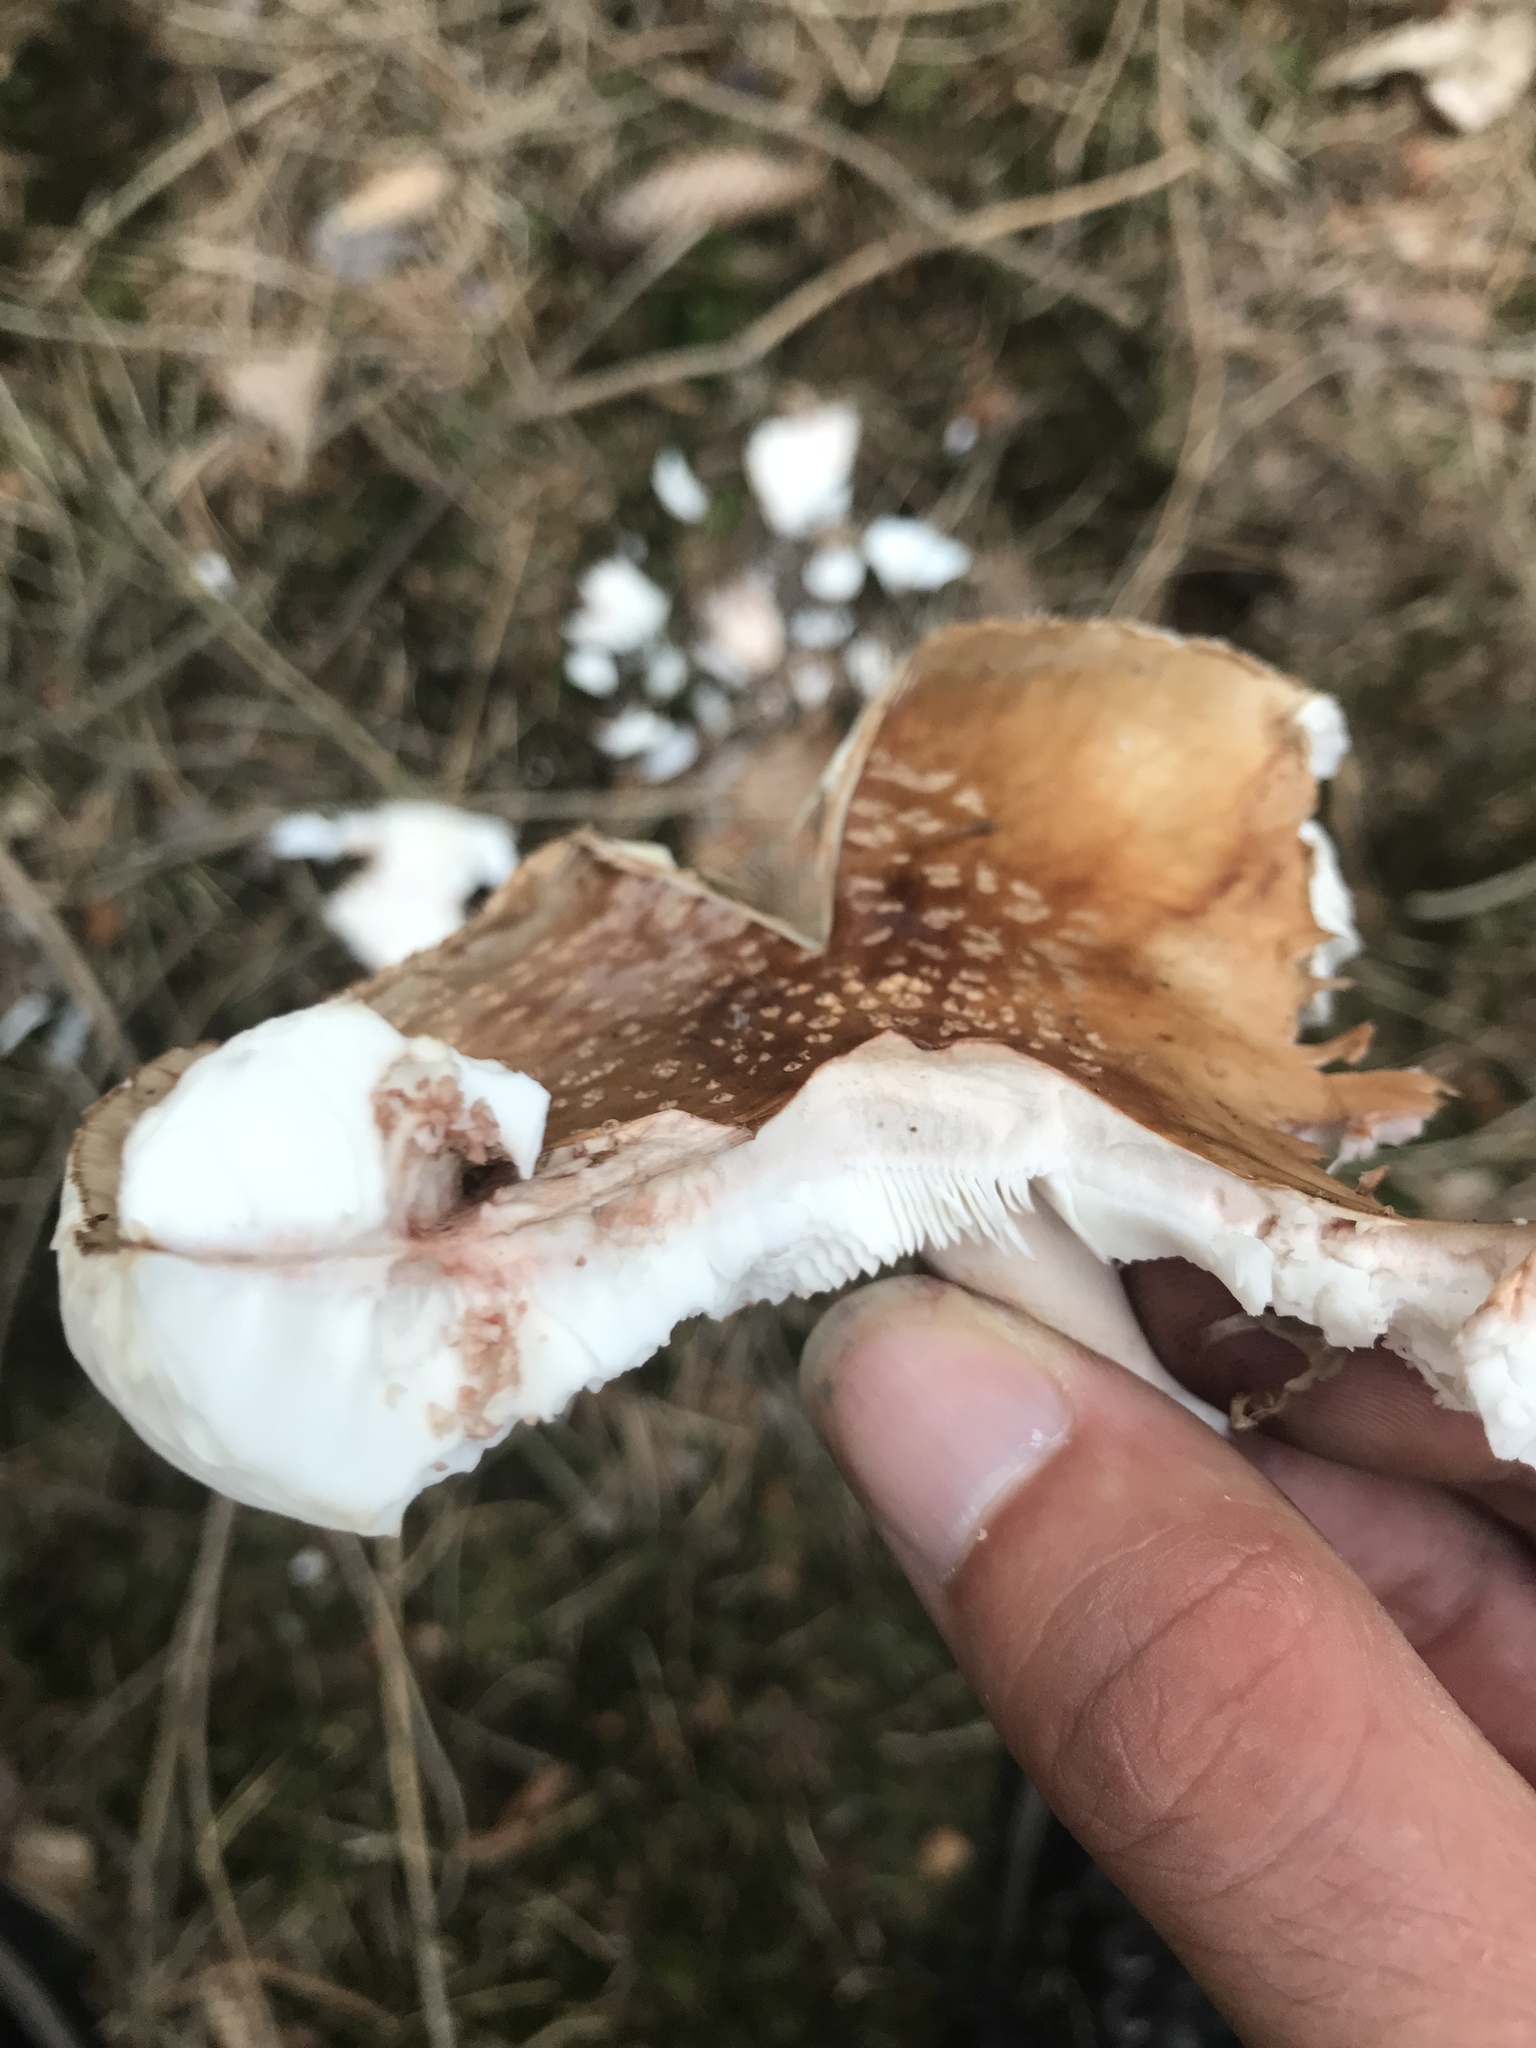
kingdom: Fungi
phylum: Basidiomycota
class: Agaricomycetes
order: Agaricales
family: Amanitaceae
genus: Amanita
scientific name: Amanita rubescens
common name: Blusher
